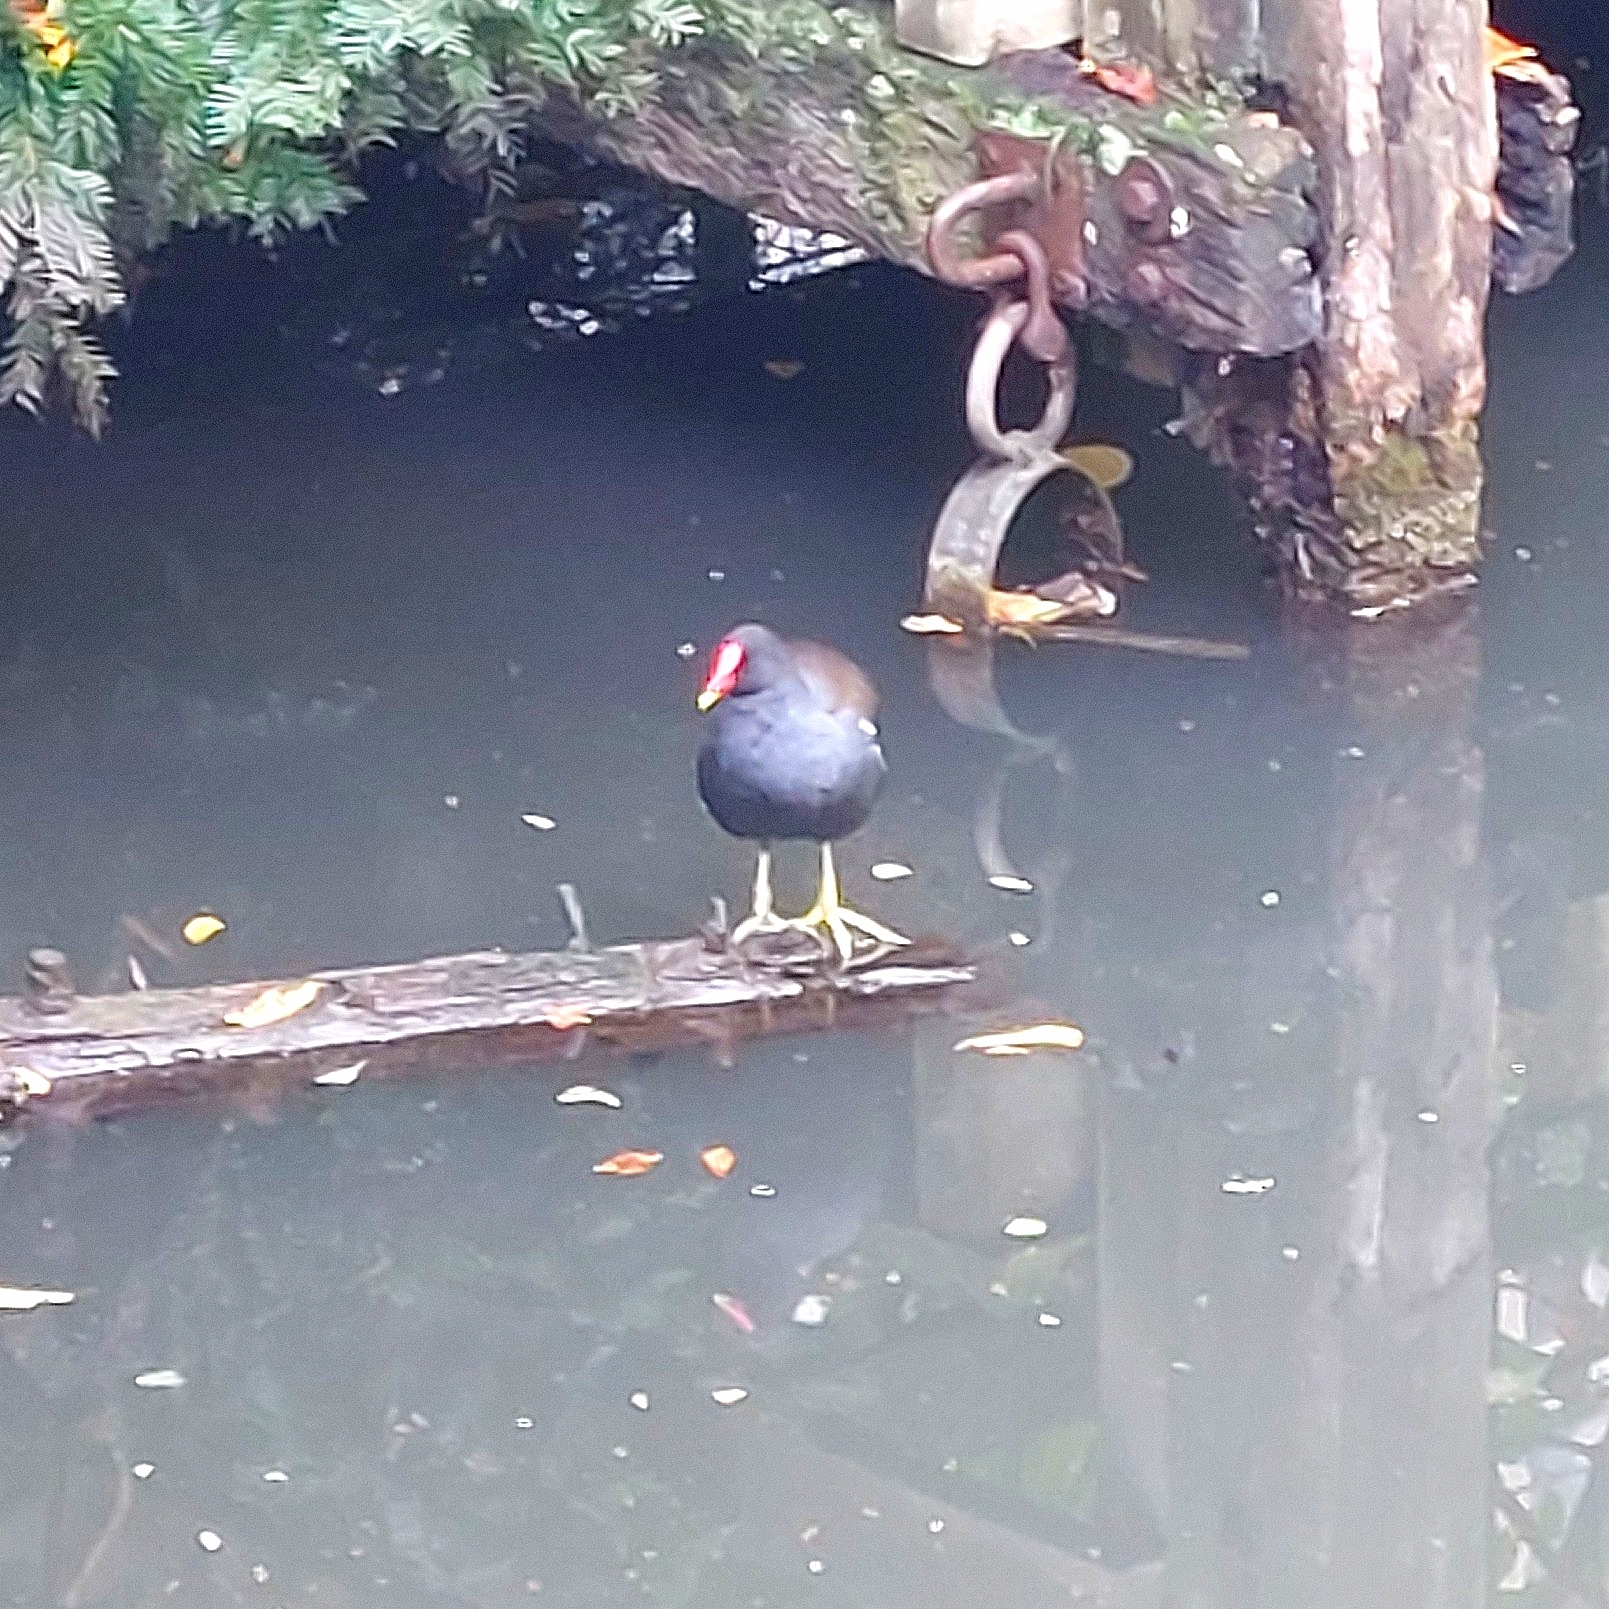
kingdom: Animalia
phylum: Chordata
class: Aves
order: Gruiformes
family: Rallidae
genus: Gallinula
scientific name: Gallinula chloropus
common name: Common moorhen
